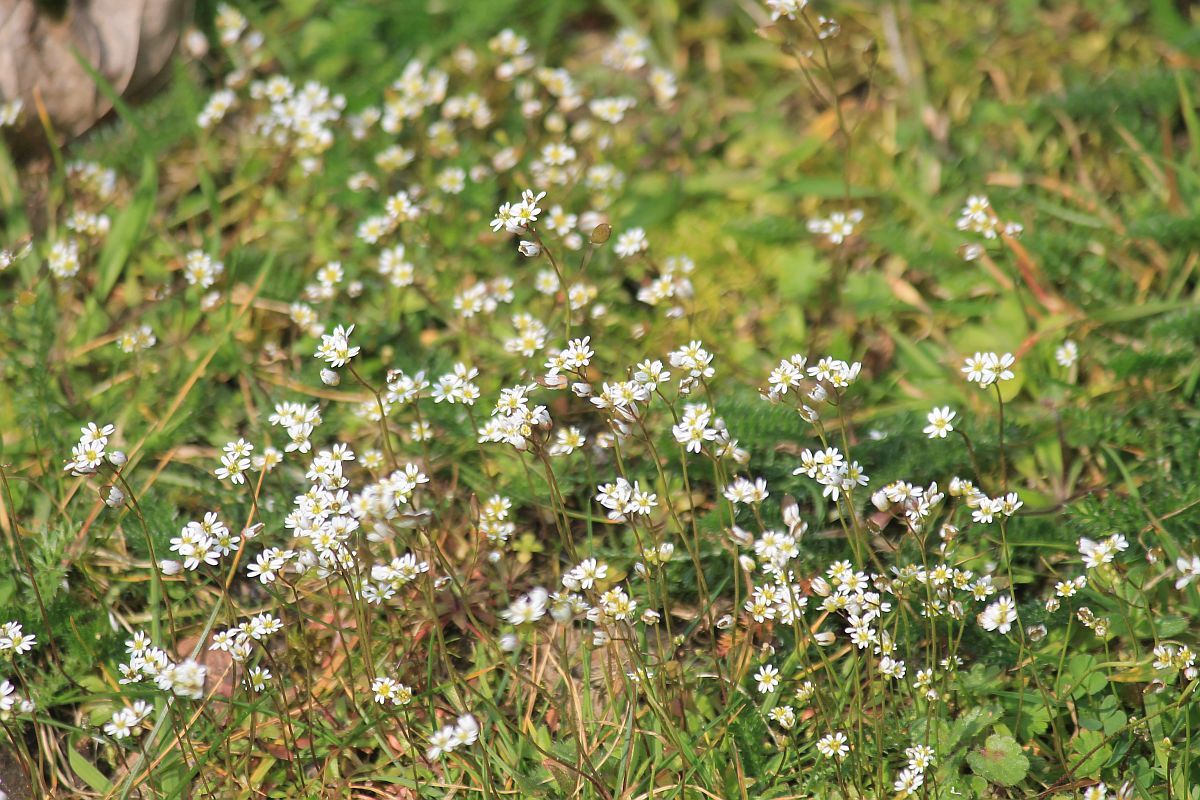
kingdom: Plantae
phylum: Tracheophyta
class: Magnoliopsida
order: Brassicales
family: Brassicaceae
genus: Draba
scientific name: Draba verna
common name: Spring draba
